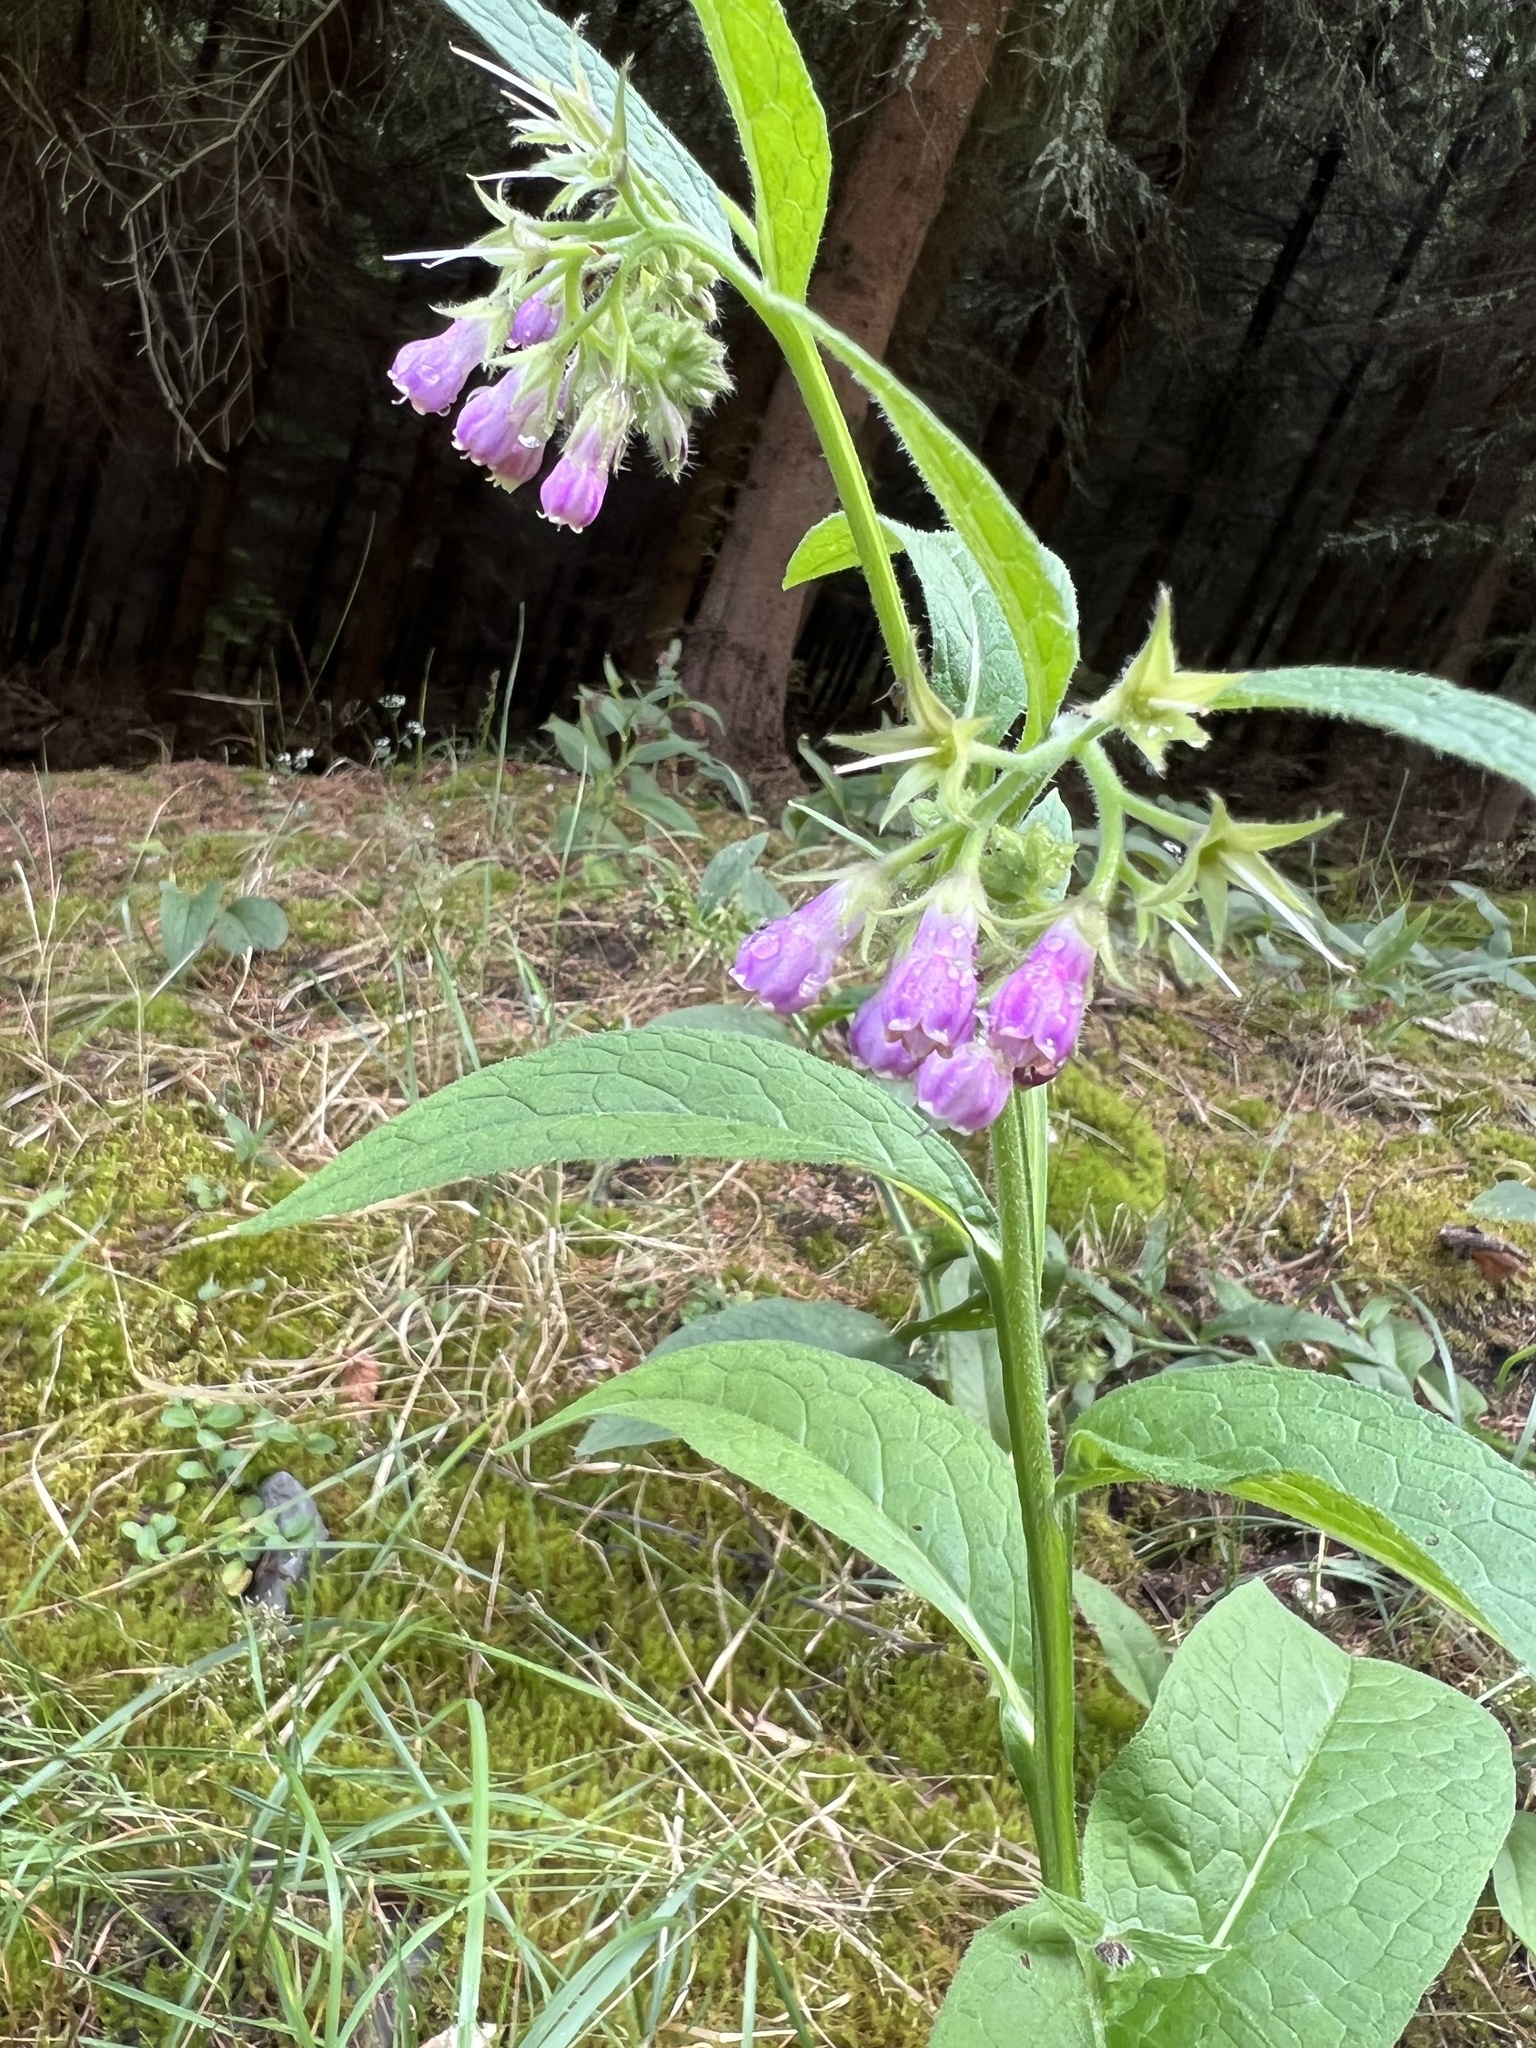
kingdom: Plantae
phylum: Tracheophyta
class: Magnoliopsida
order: Boraginales
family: Boraginaceae
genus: Symphytum
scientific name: Symphytum officinale
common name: Common comfrey
